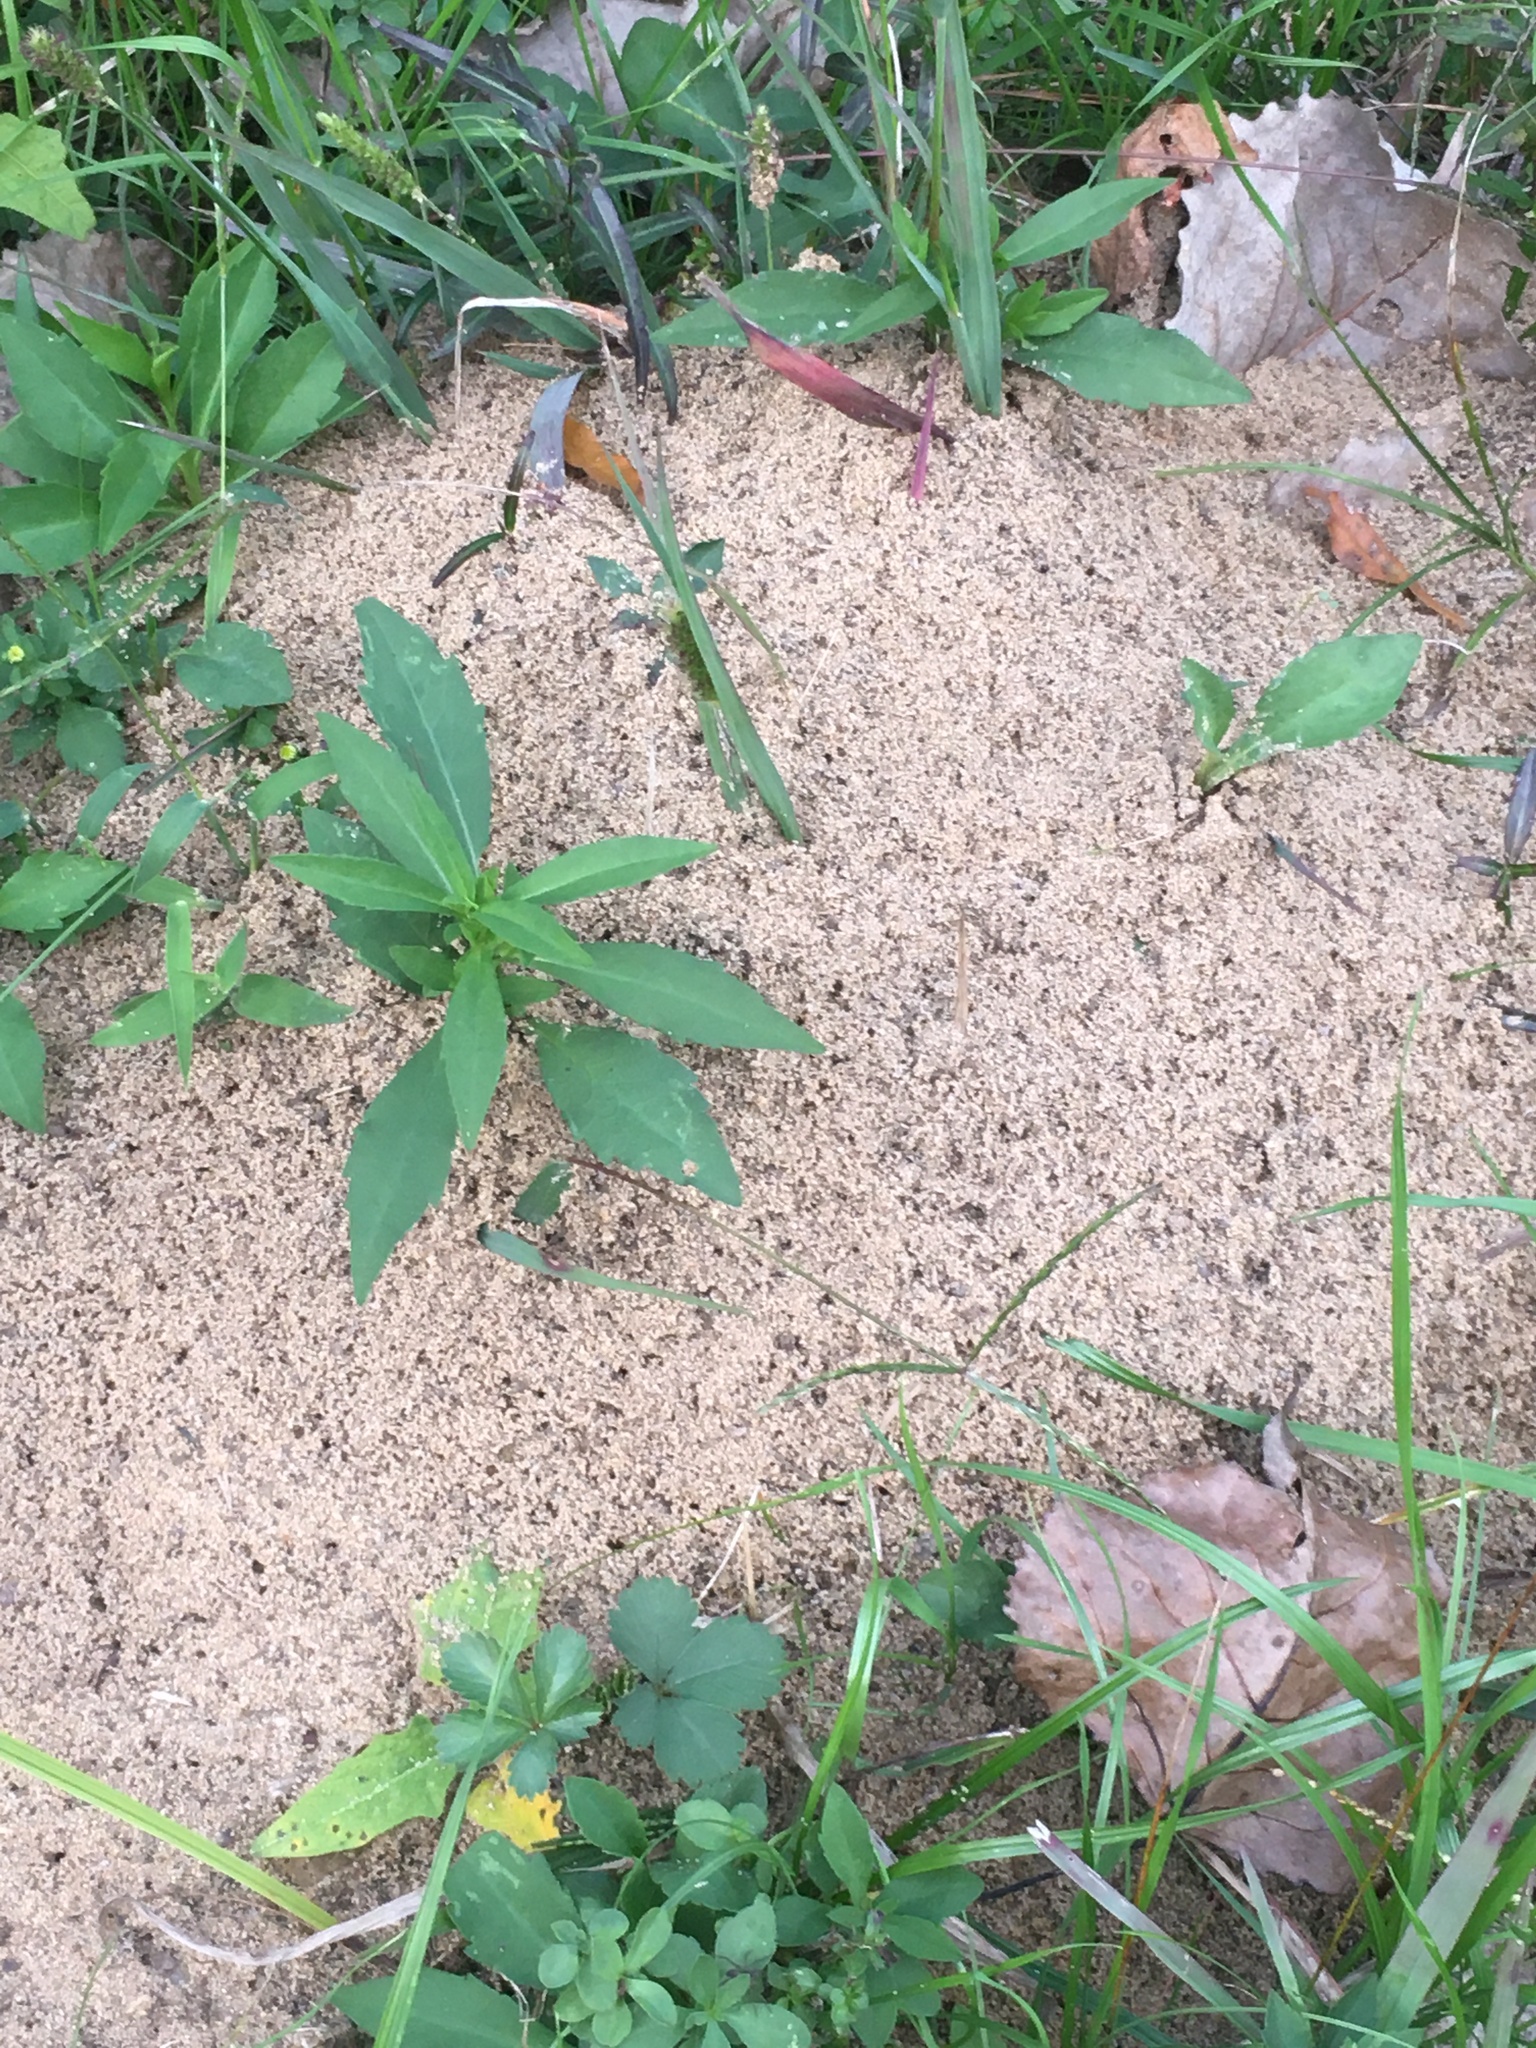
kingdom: Animalia
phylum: Arthropoda
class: Insecta
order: Hymenoptera
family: Formicidae
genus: Solenopsis
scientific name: Solenopsis invicta
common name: Red imported fire ant
